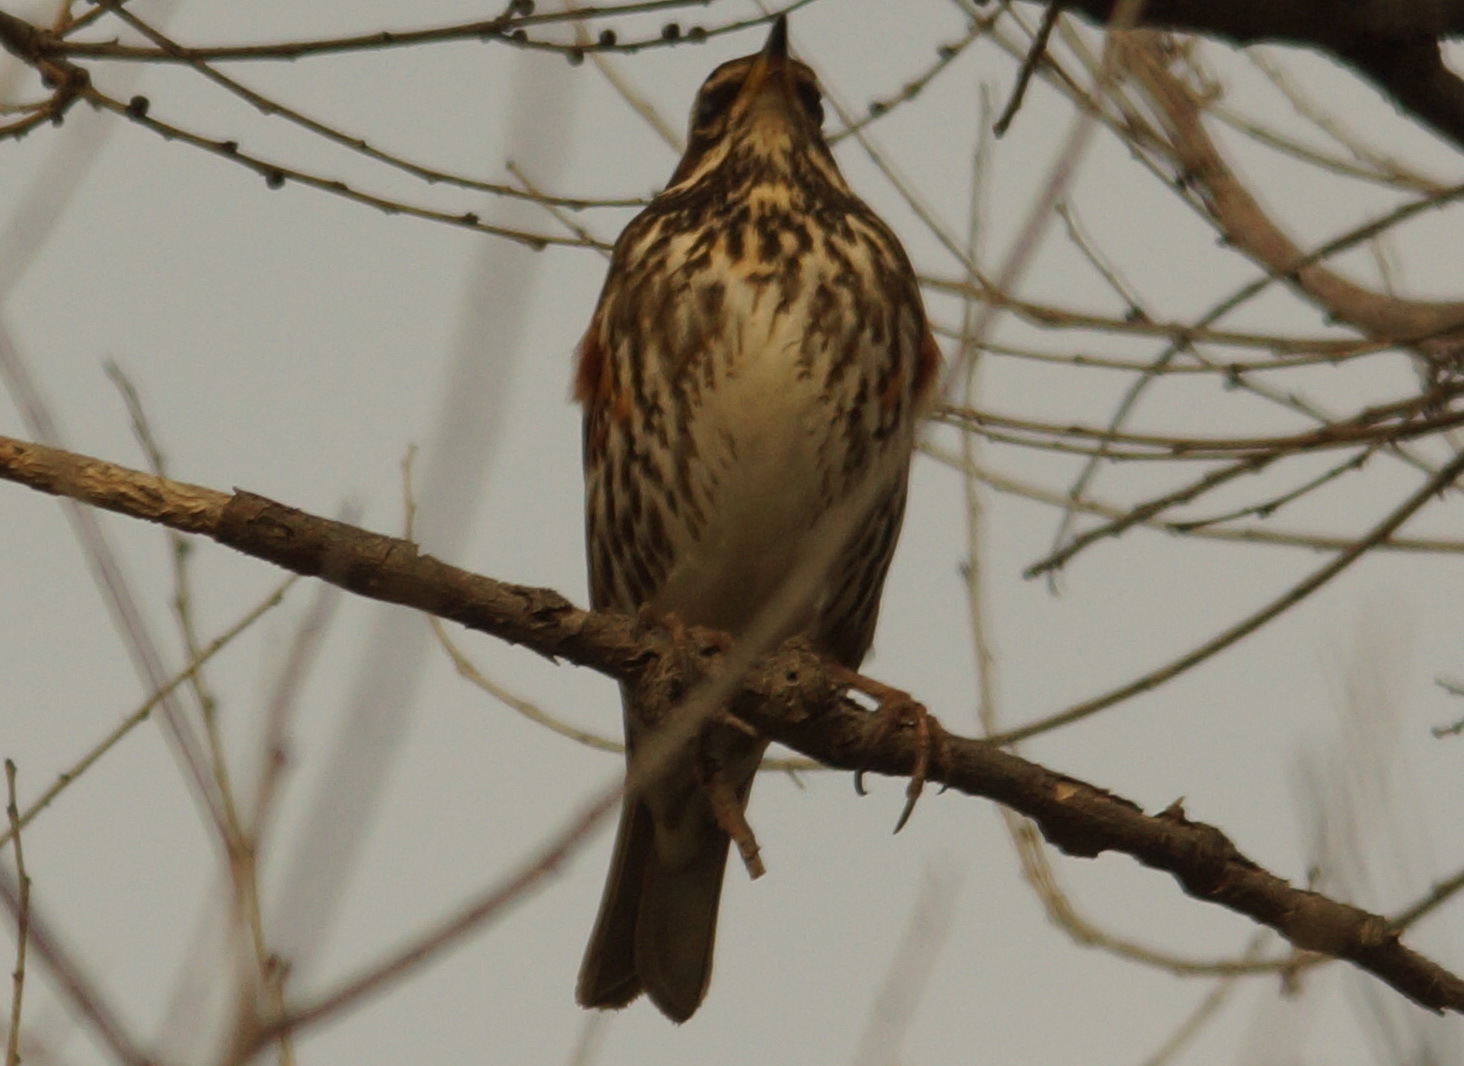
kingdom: Animalia
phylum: Chordata
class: Aves
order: Passeriformes
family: Turdidae
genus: Turdus
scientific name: Turdus iliacus
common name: Redwing
